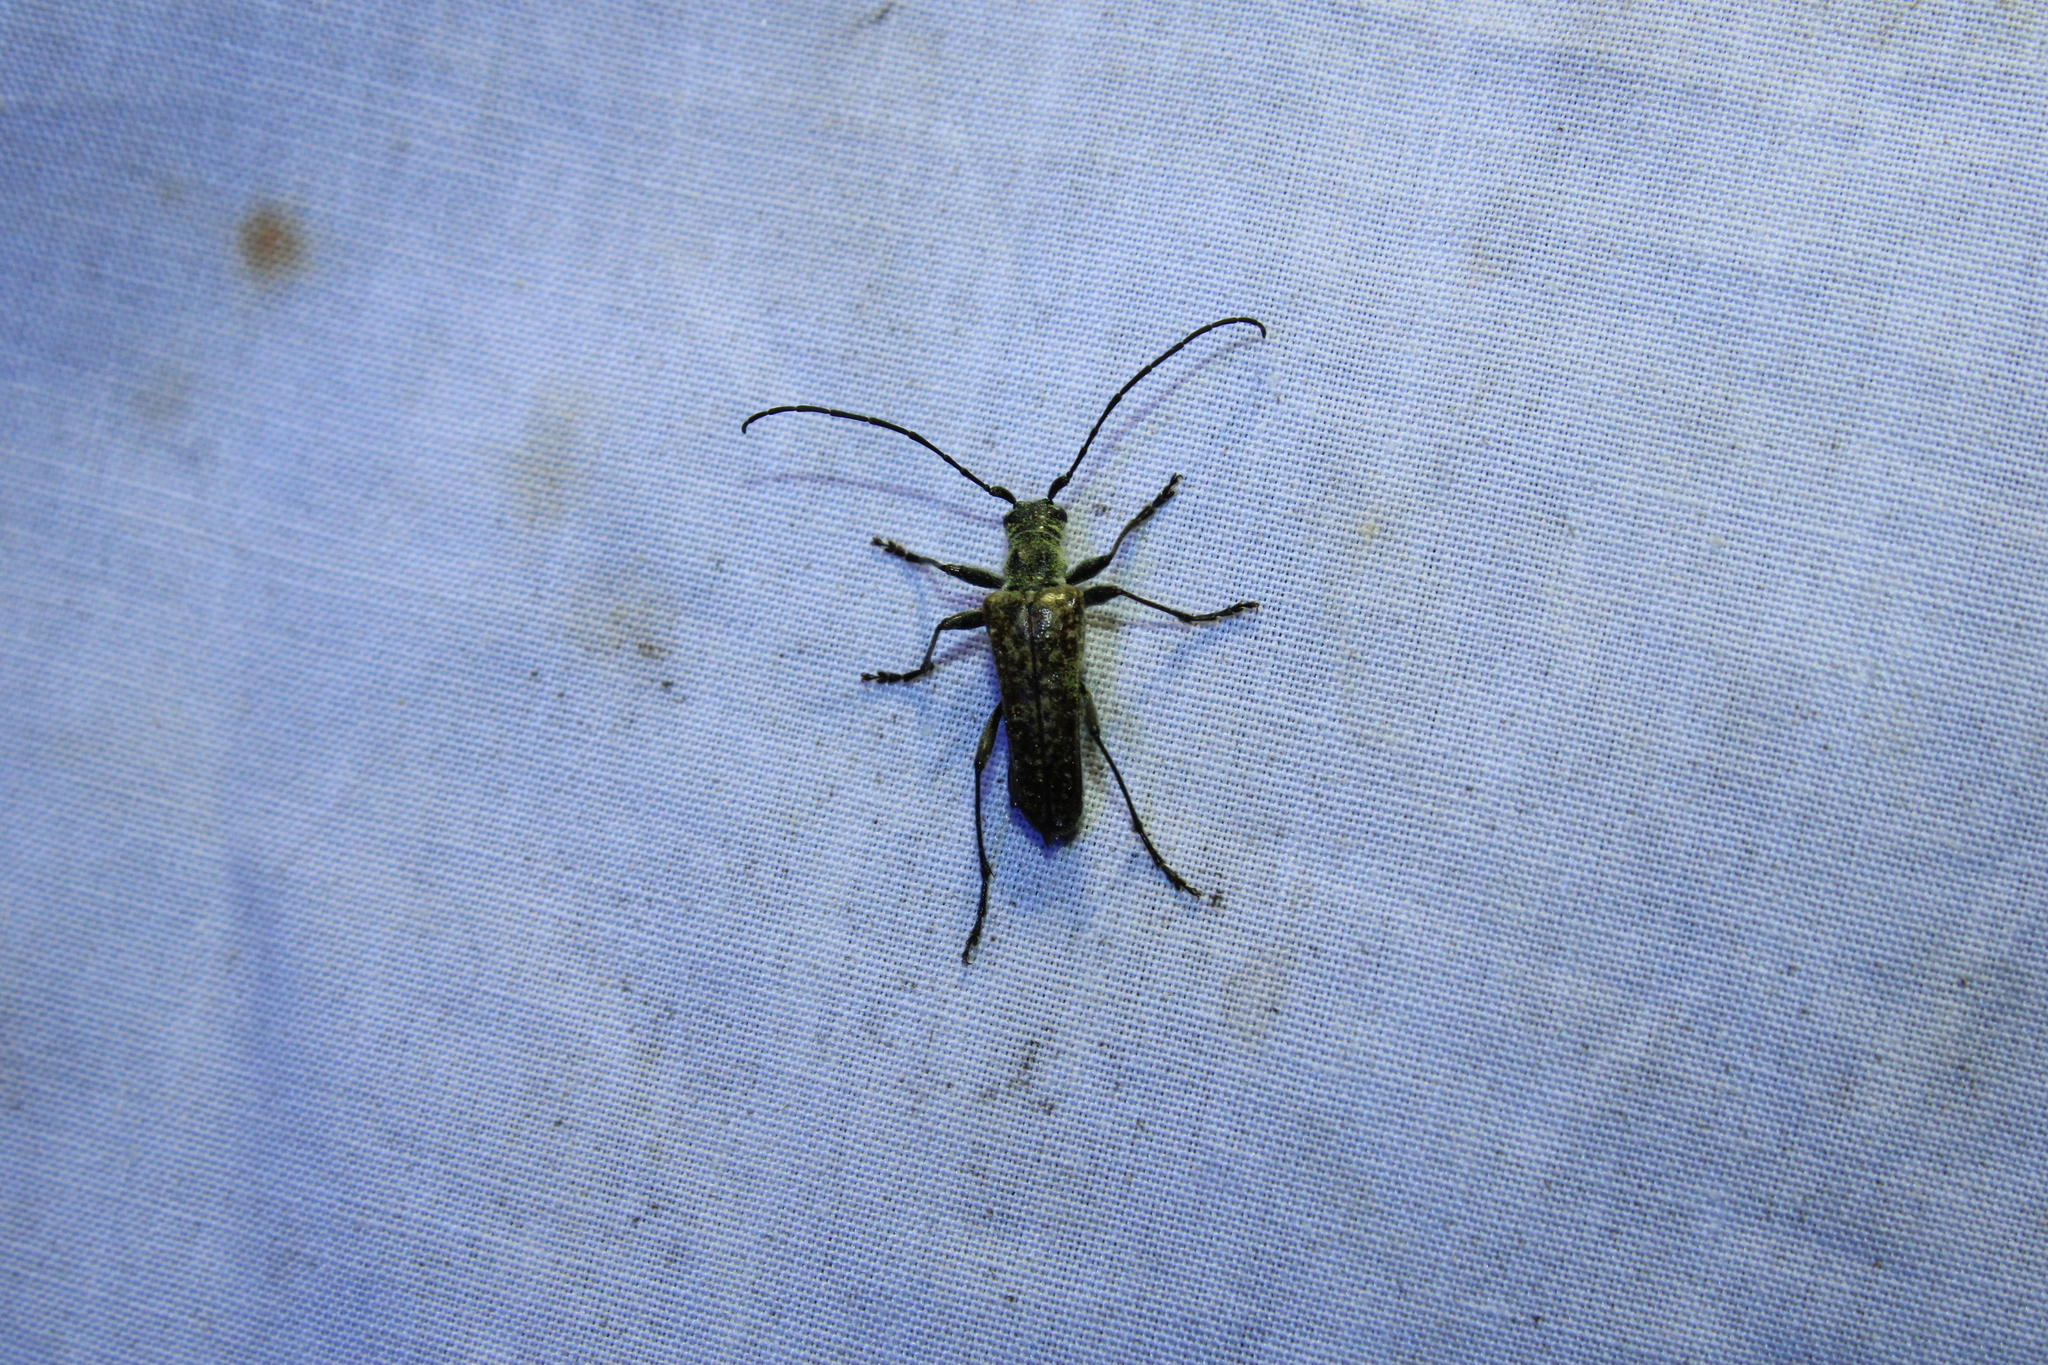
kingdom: Animalia
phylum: Arthropoda
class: Insecta
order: Coleoptera
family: Cerambycidae
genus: Anthophylax
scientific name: Anthophylax attenuatus
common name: Mottled longhorned beetle
